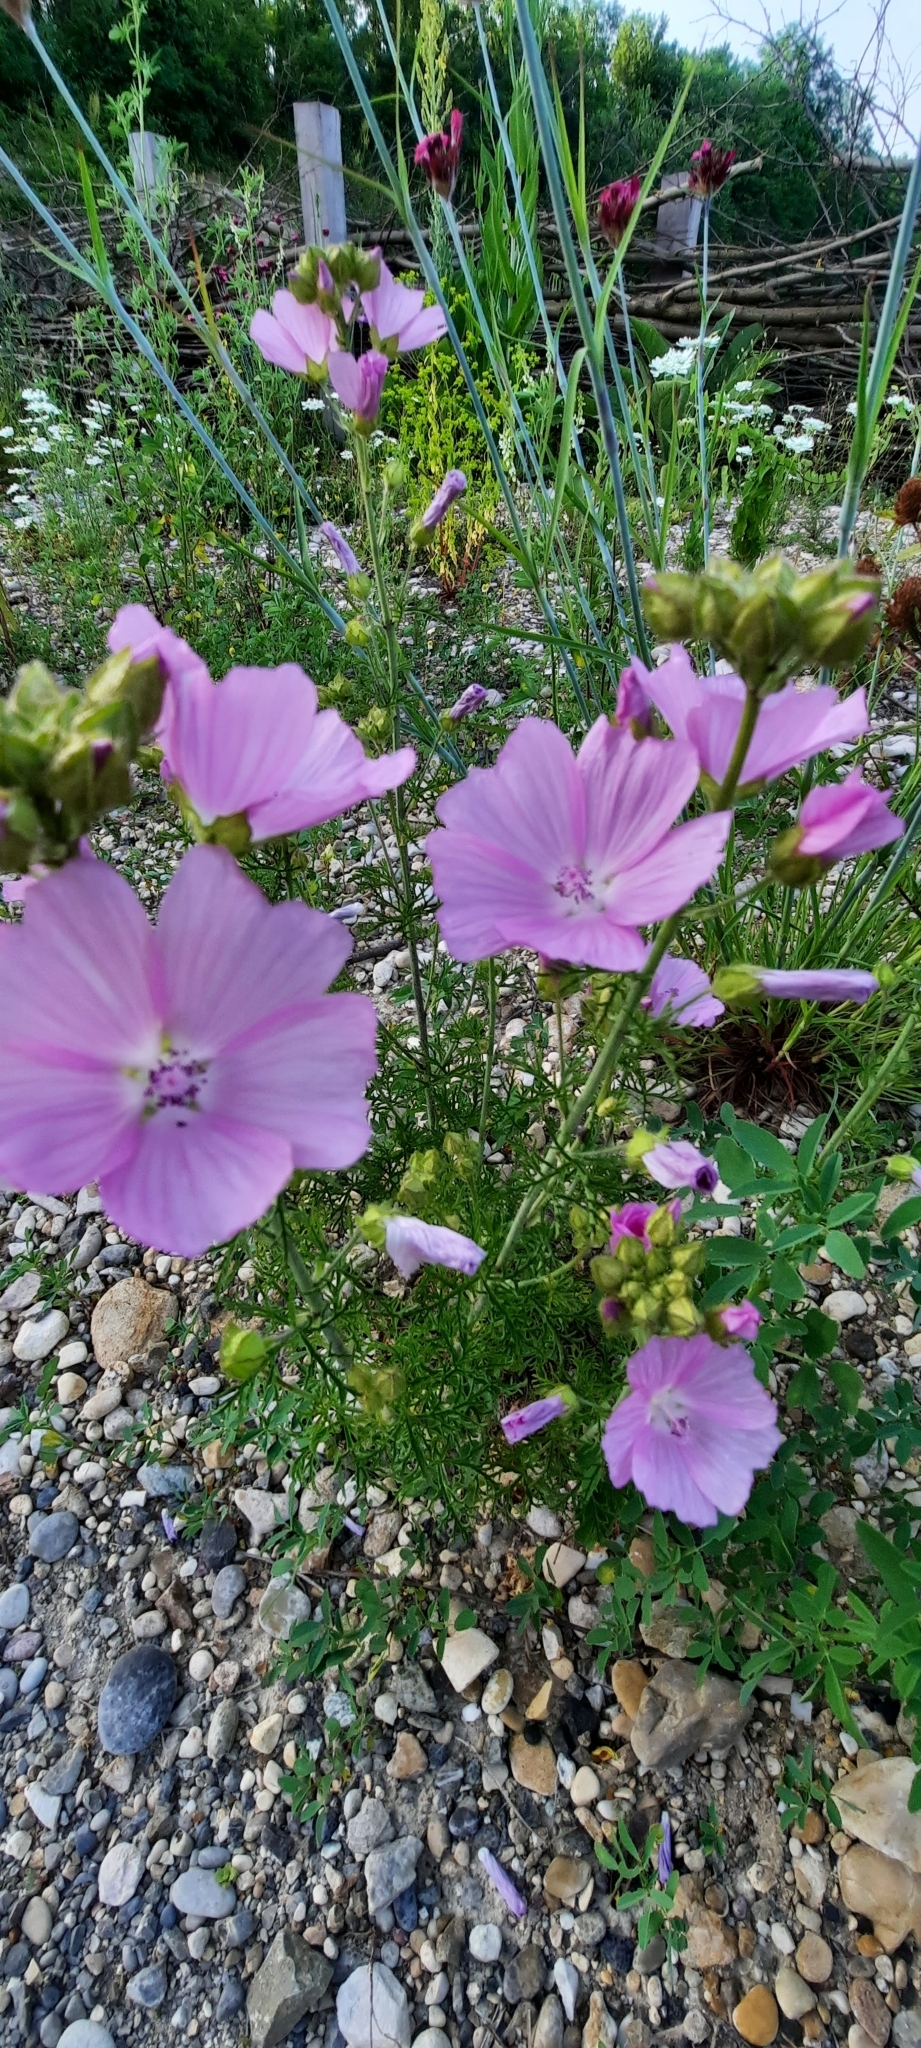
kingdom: Plantae
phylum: Tracheophyta
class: Magnoliopsida
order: Malvales
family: Malvaceae
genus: Malva
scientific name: Malva moschata
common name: Musk mallow
